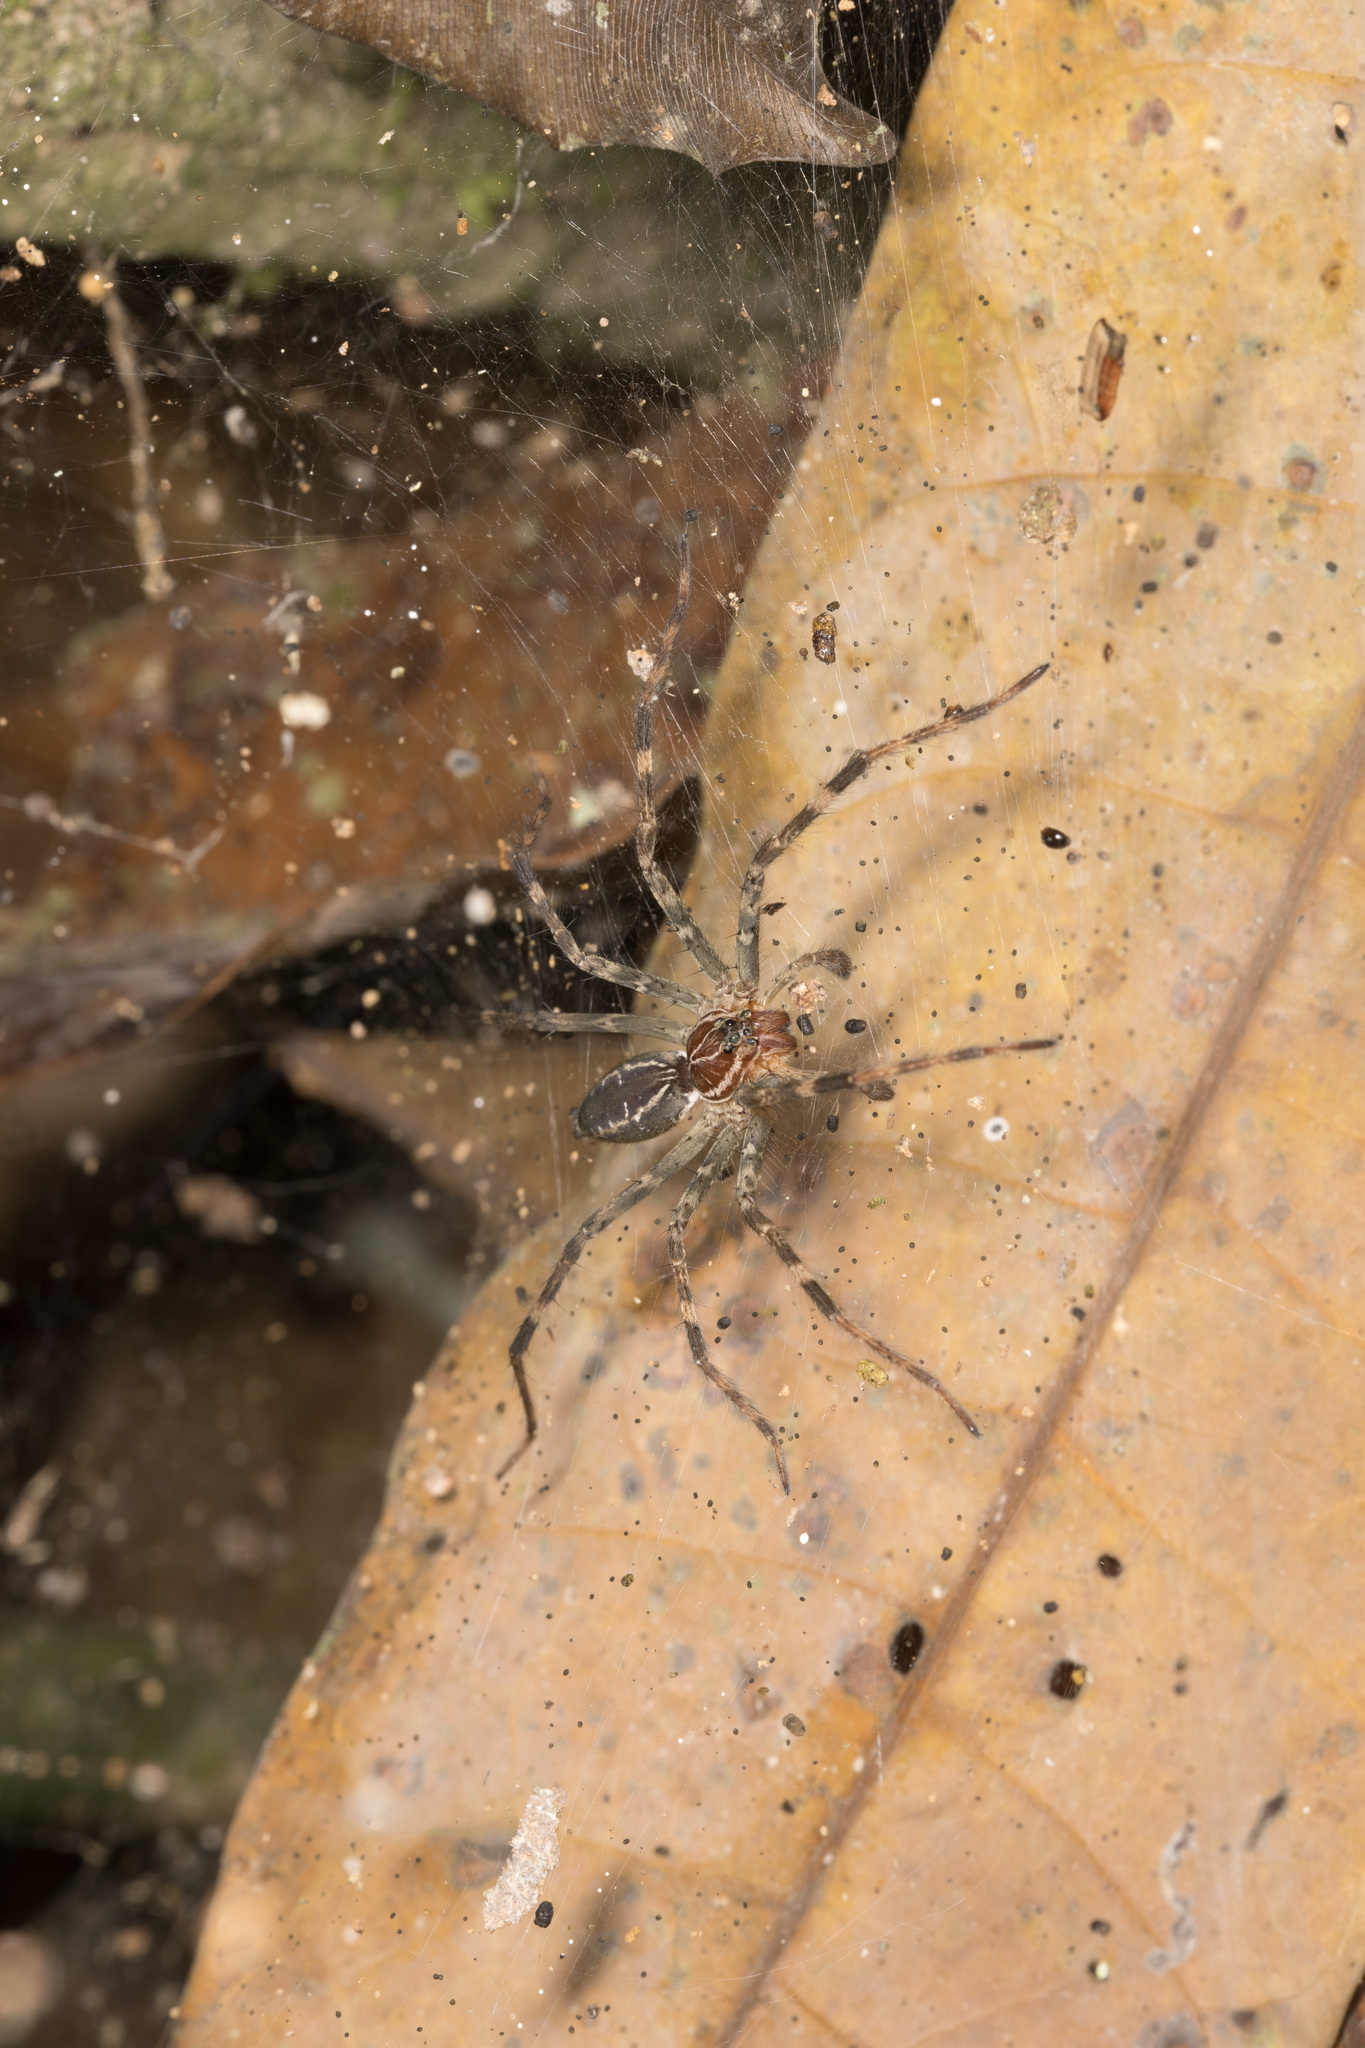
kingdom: Animalia
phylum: Arthropoda
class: Arachnida
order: Araneae
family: Lycosidae
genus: Aglaoctenus
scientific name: Aglaoctenus castaneus
